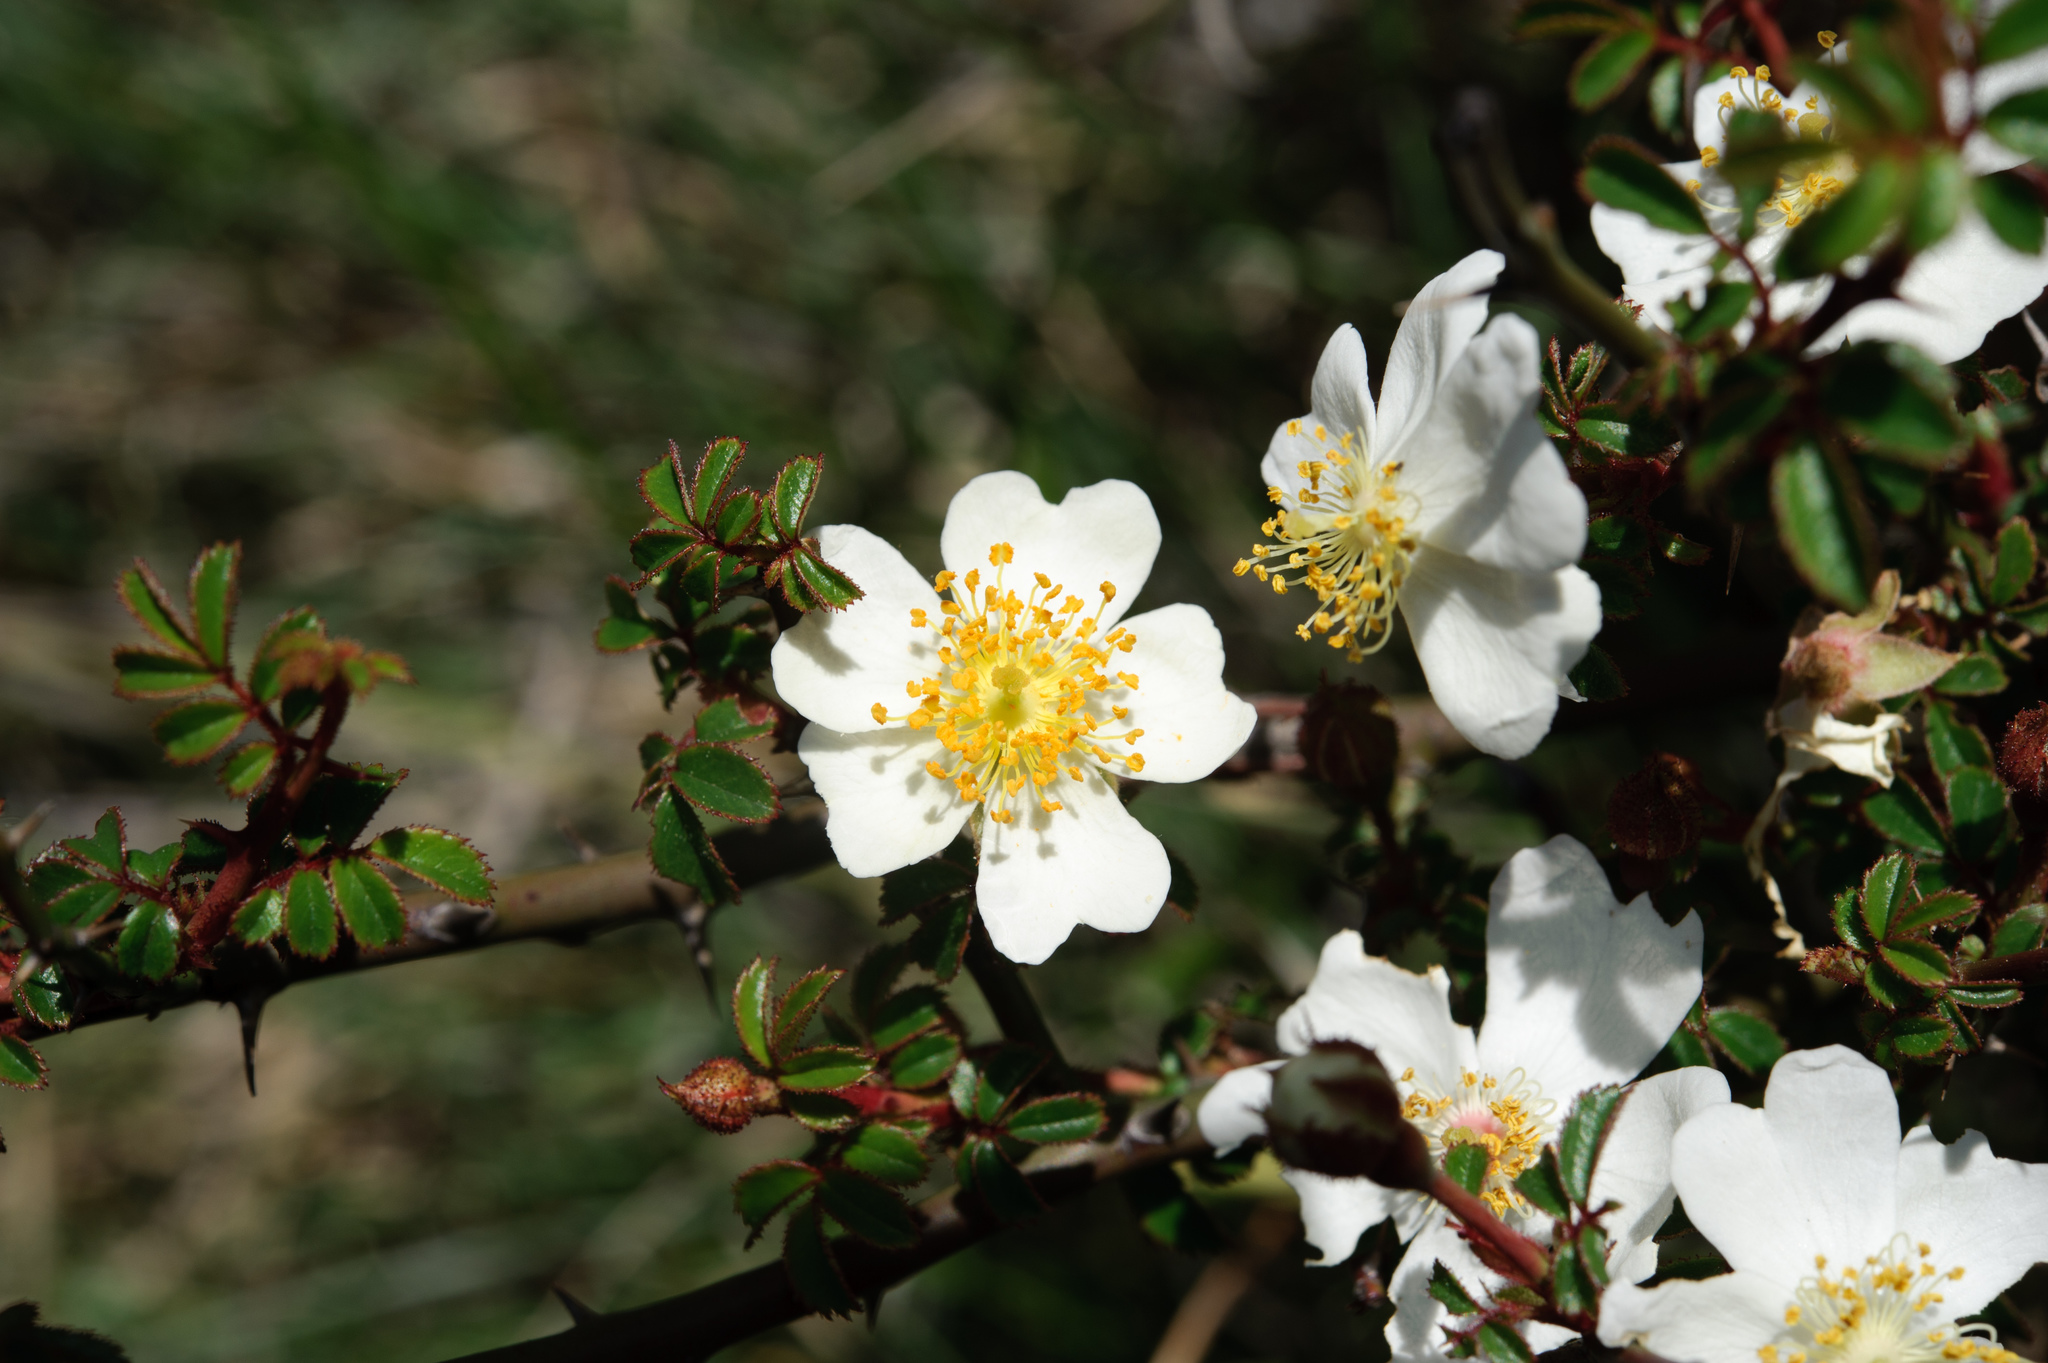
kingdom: Plantae
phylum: Tracheophyta
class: Magnoliopsida
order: Rosales
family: Rosaceae
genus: Rosa
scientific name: Rosa transmorrisonensis
